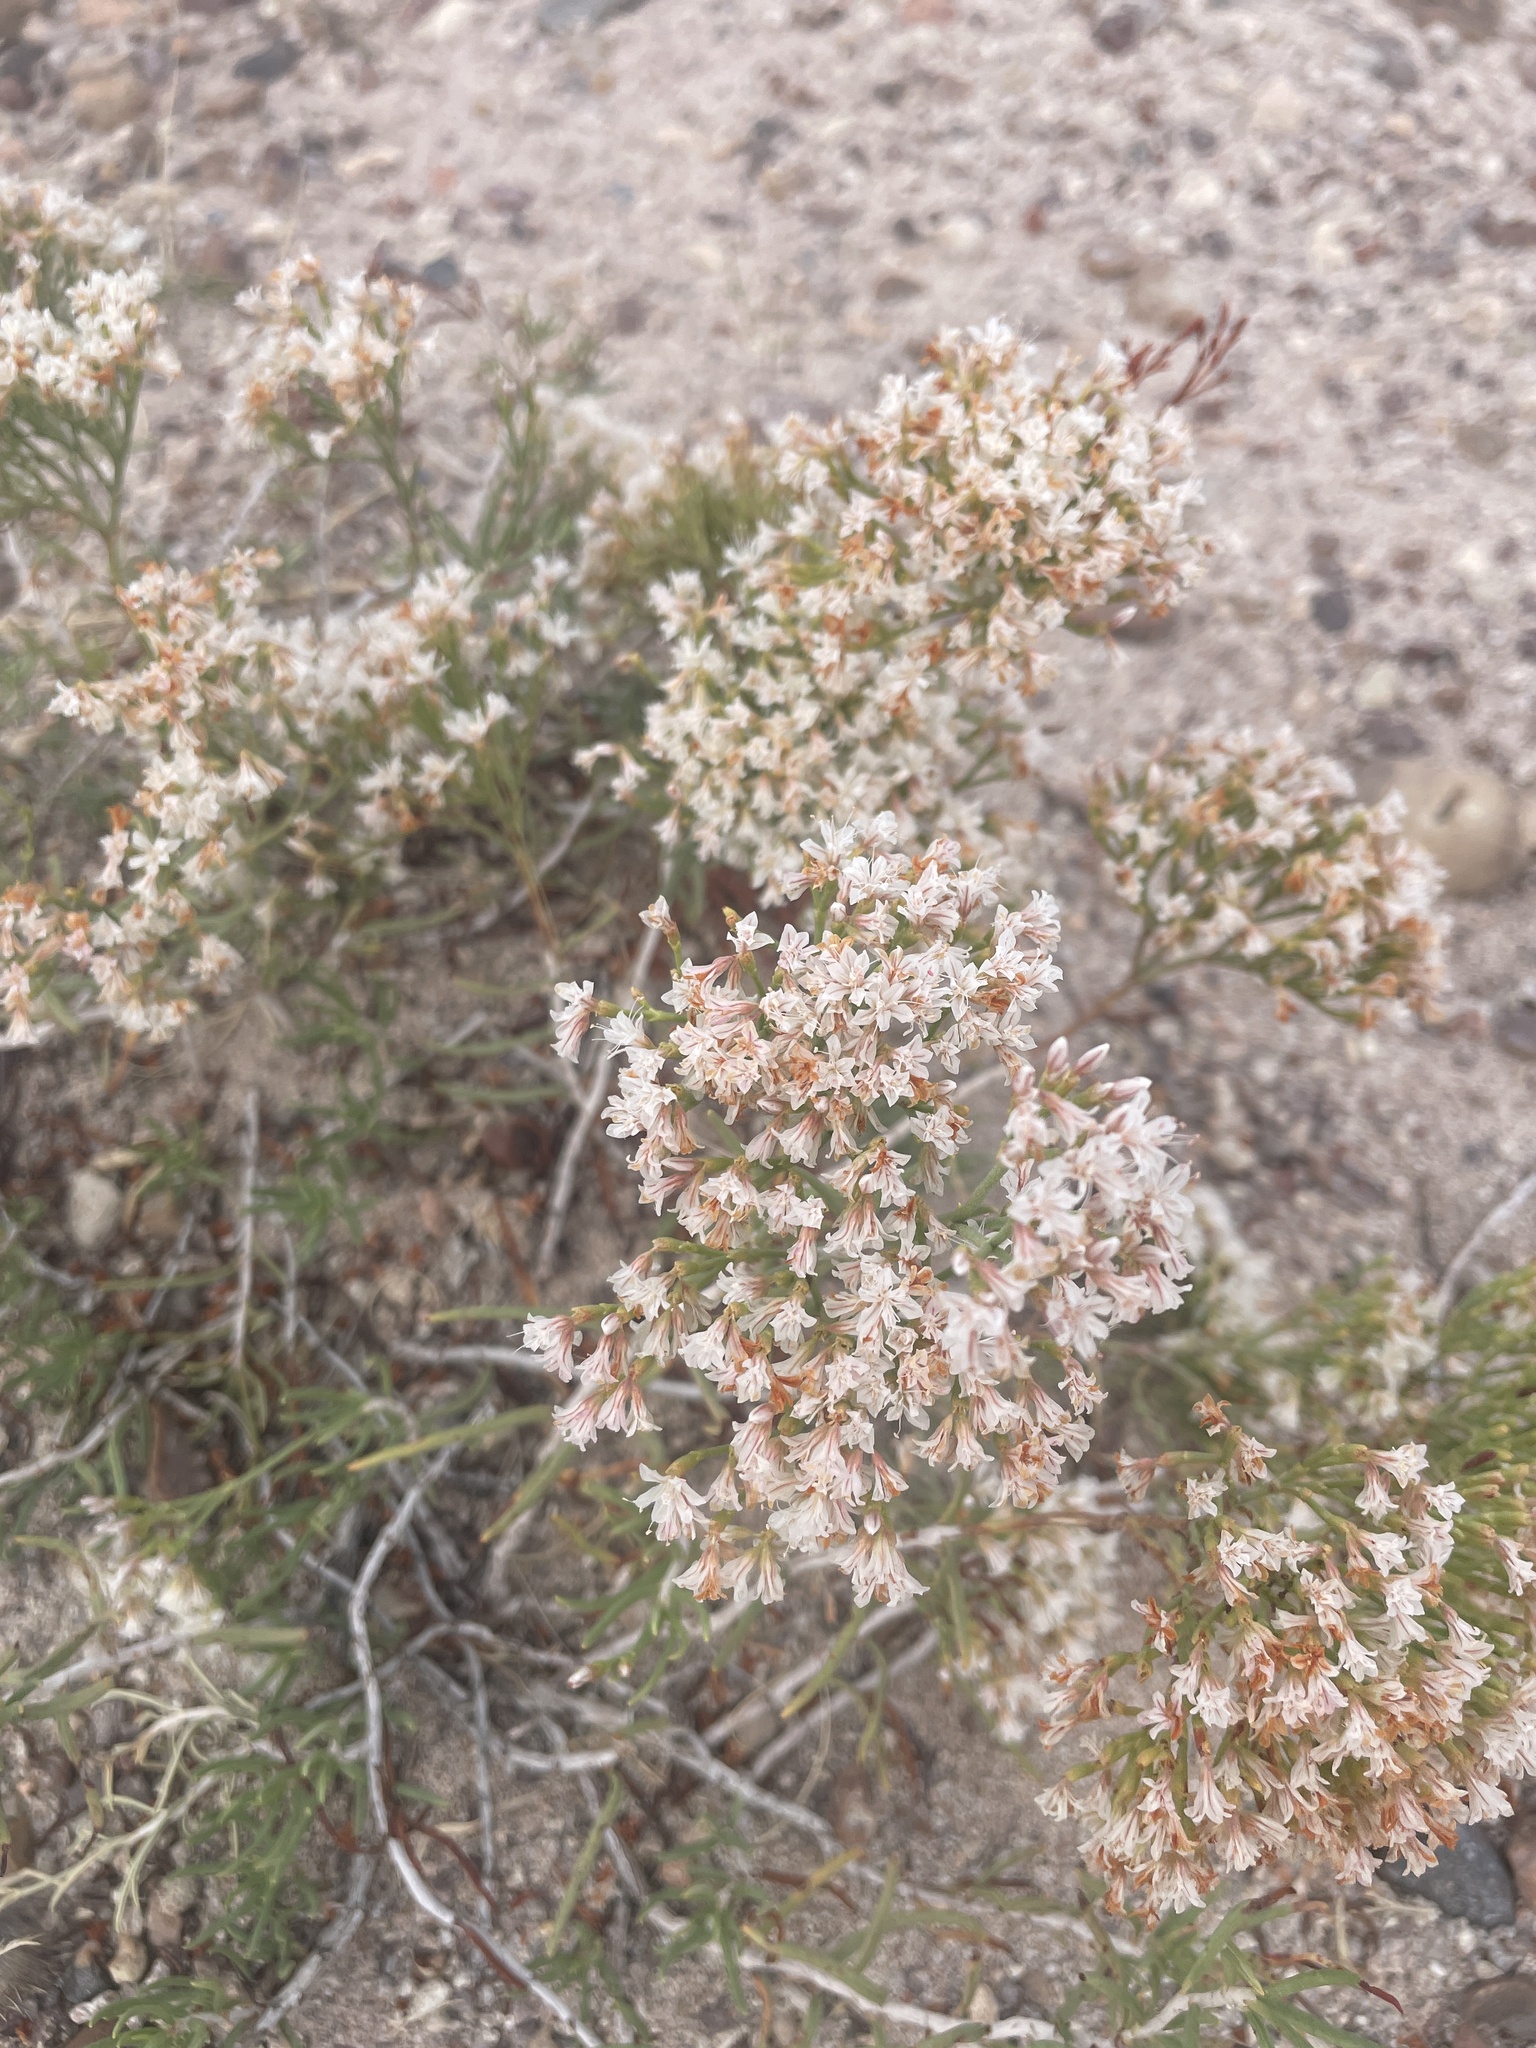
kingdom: Plantae
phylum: Tracheophyta
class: Magnoliopsida
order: Caryophyllales
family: Polygonaceae
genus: Eriogonum
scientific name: Eriogonum pulchrum
